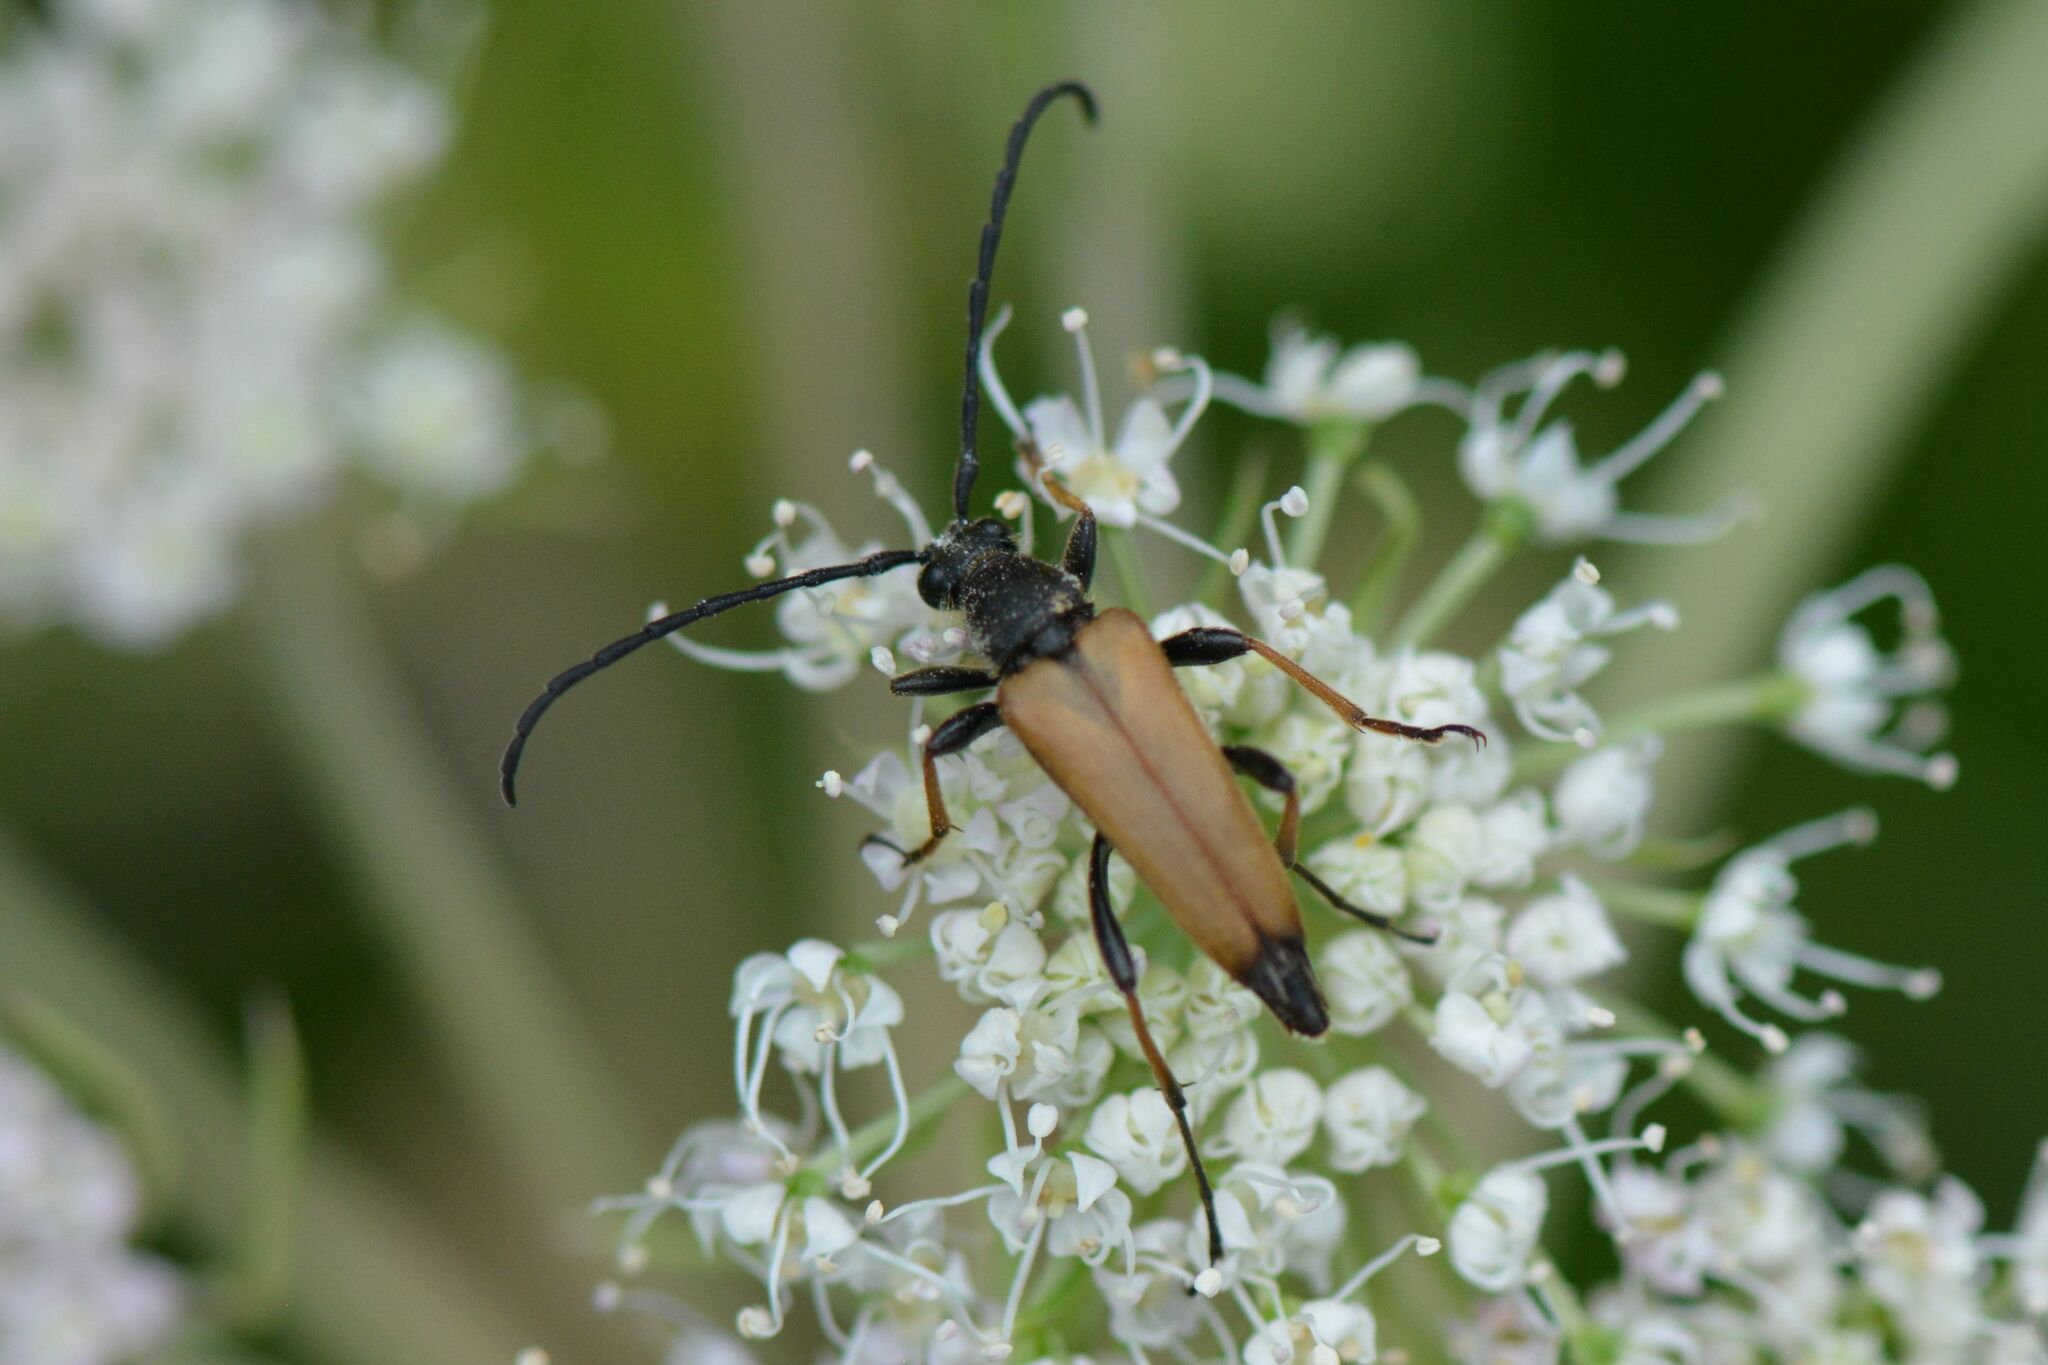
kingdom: Animalia
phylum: Arthropoda
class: Insecta
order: Coleoptera
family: Cerambycidae
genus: Stictoleptura
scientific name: Stictoleptura rubra
